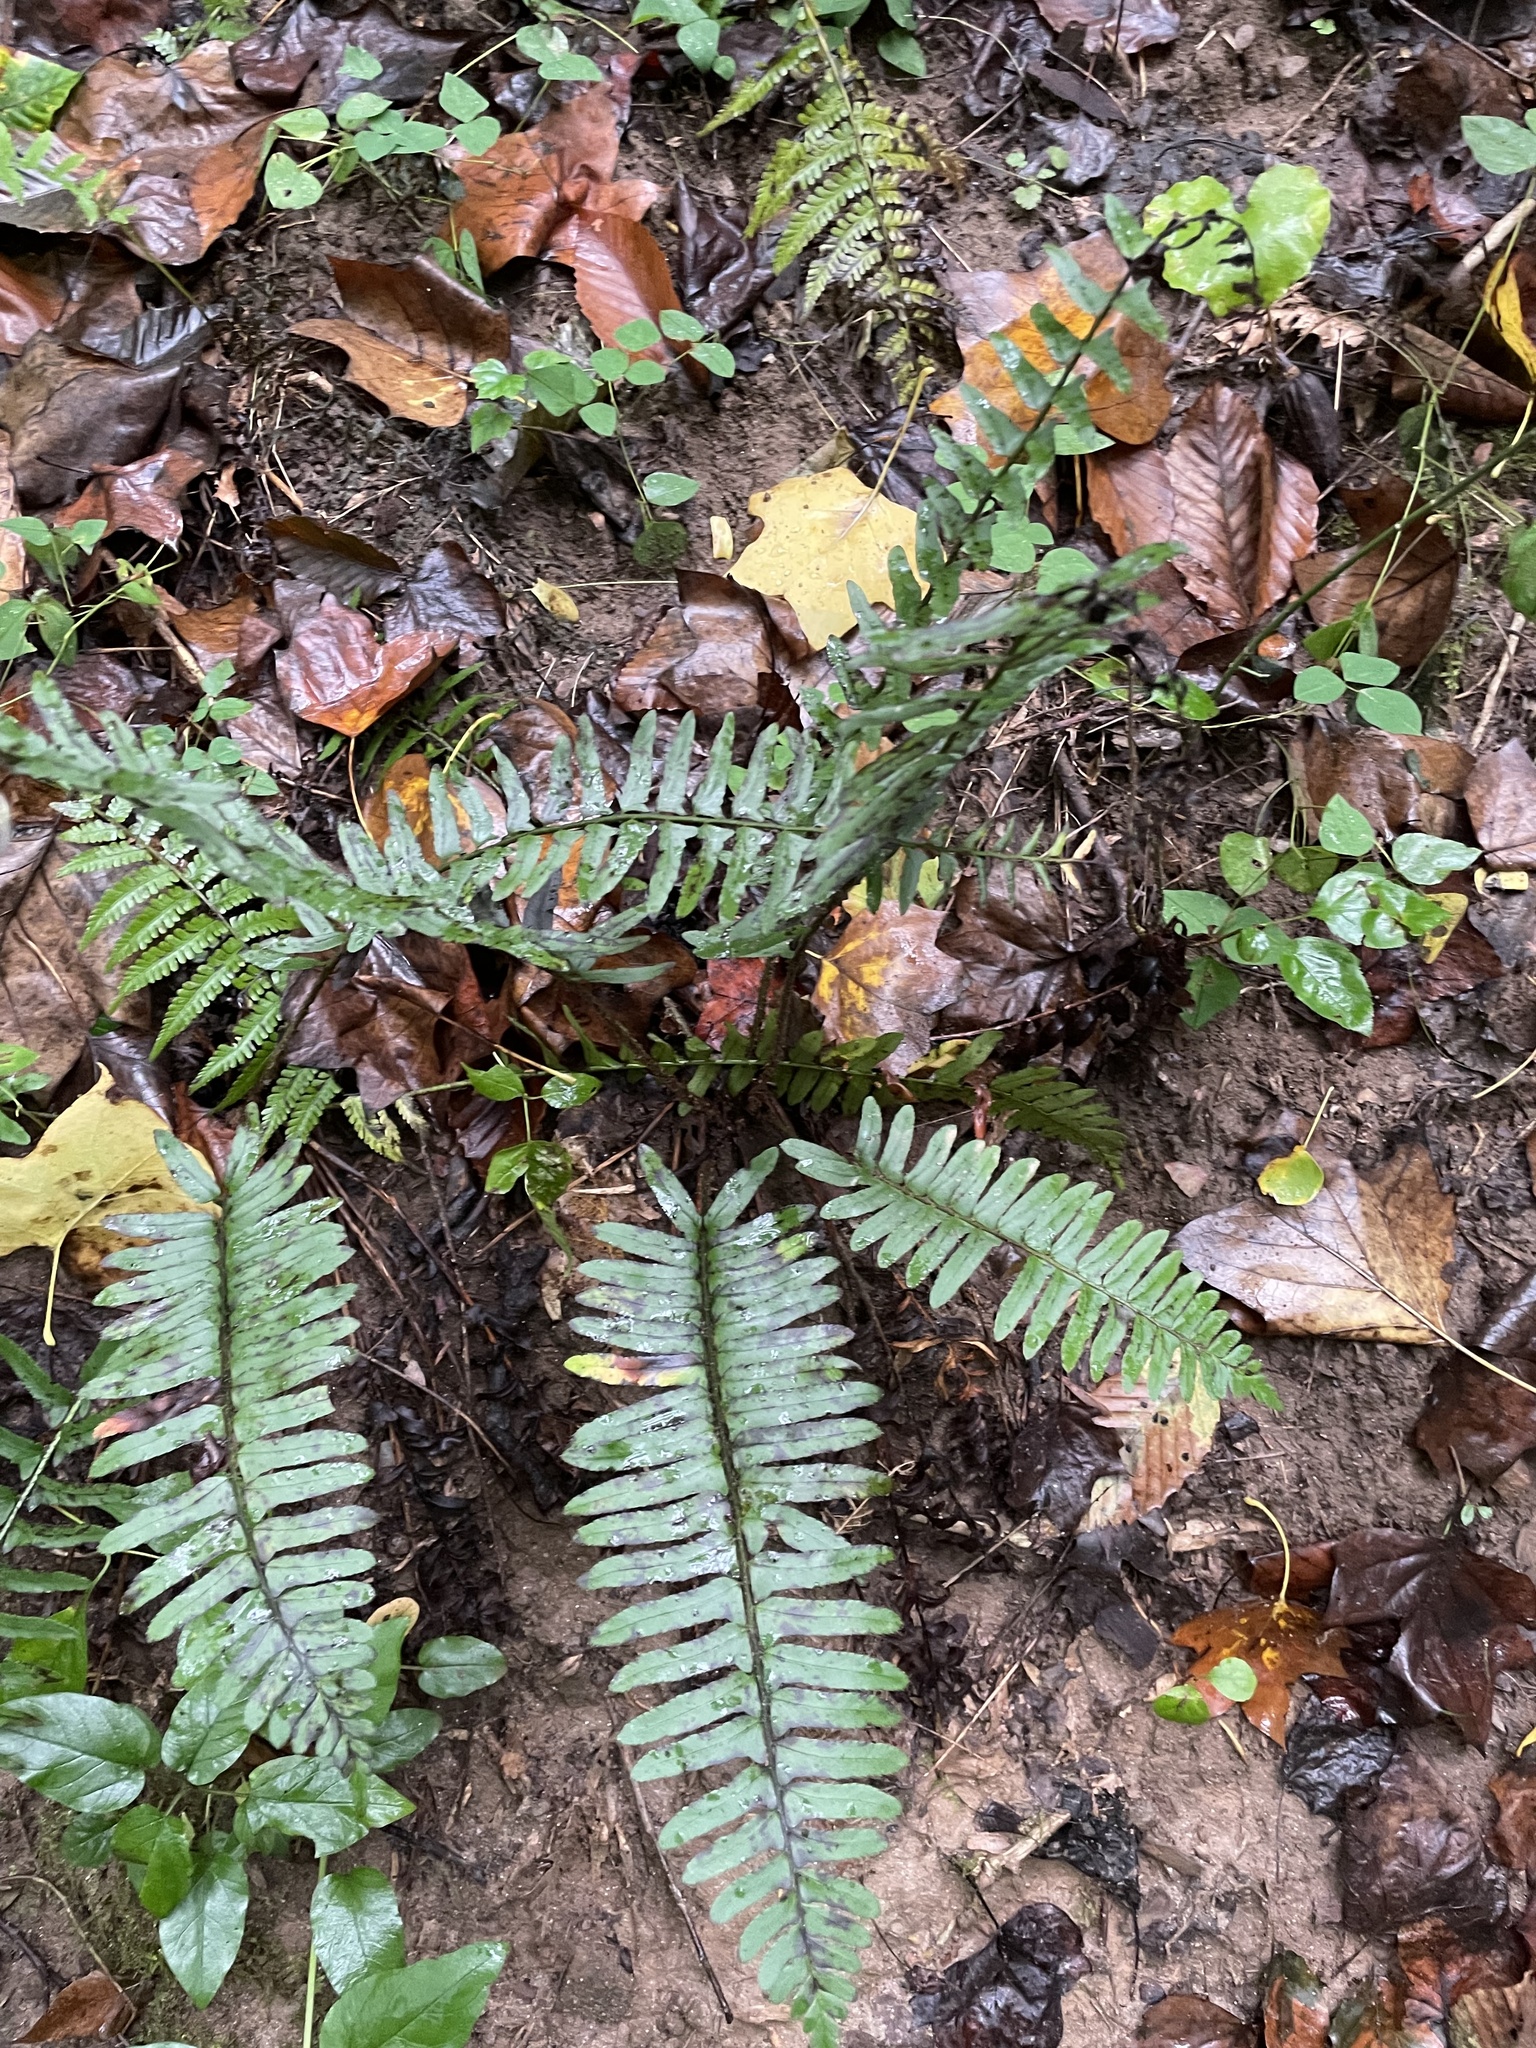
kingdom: Plantae
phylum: Tracheophyta
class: Polypodiopsida
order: Polypodiales
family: Dryopteridaceae
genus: Polystichum
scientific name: Polystichum acrostichoides
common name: Christmas fern
